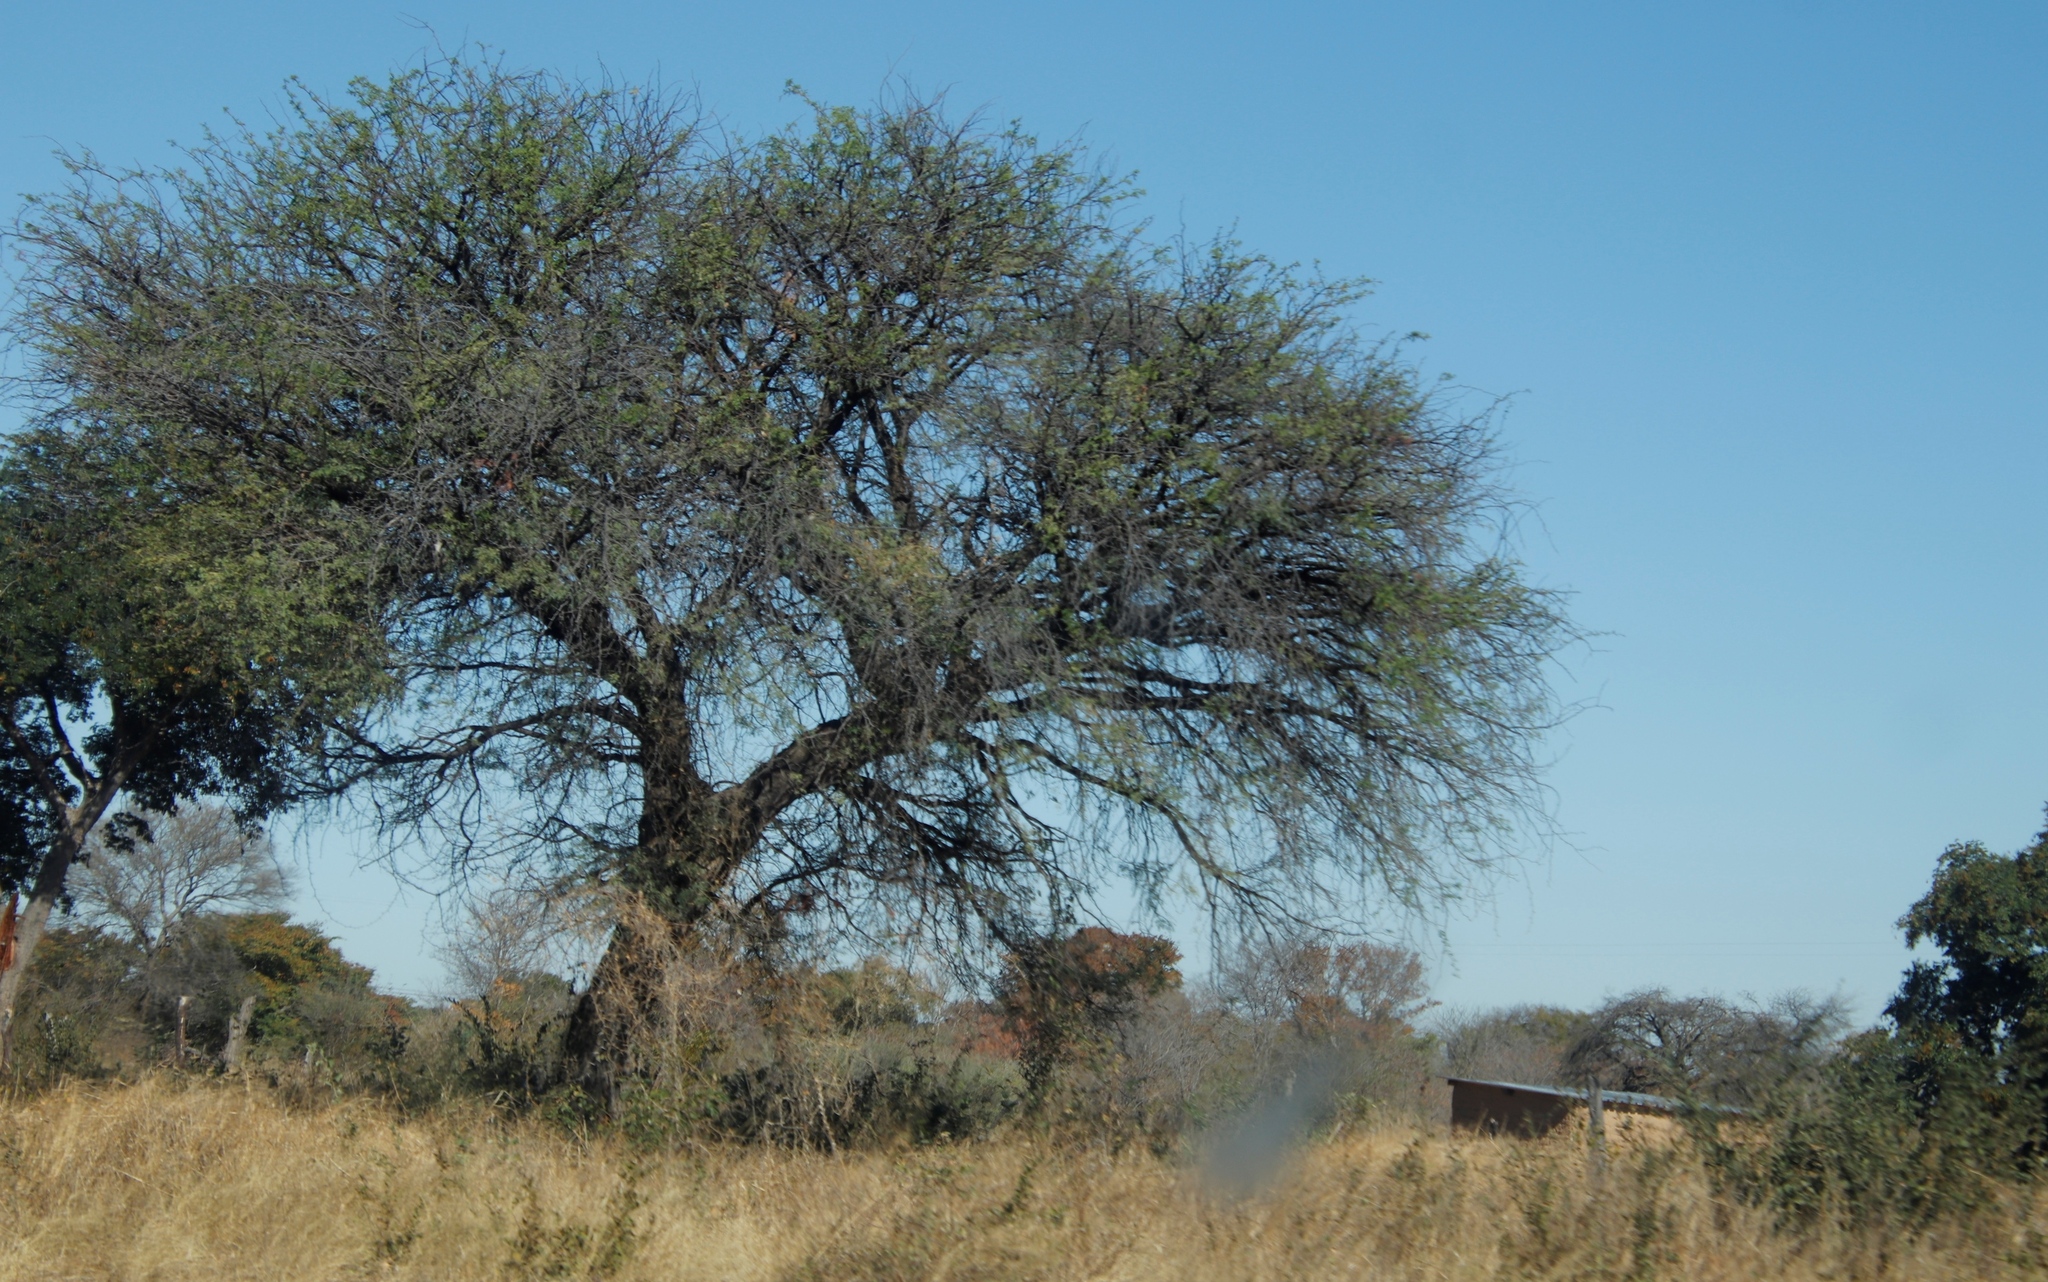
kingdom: Plantae
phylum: Tracheophyta
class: Magnoliopsida
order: Fabales
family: Fabaceae
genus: Vachellia
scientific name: Vachellia erioloba
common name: Camel thorn
